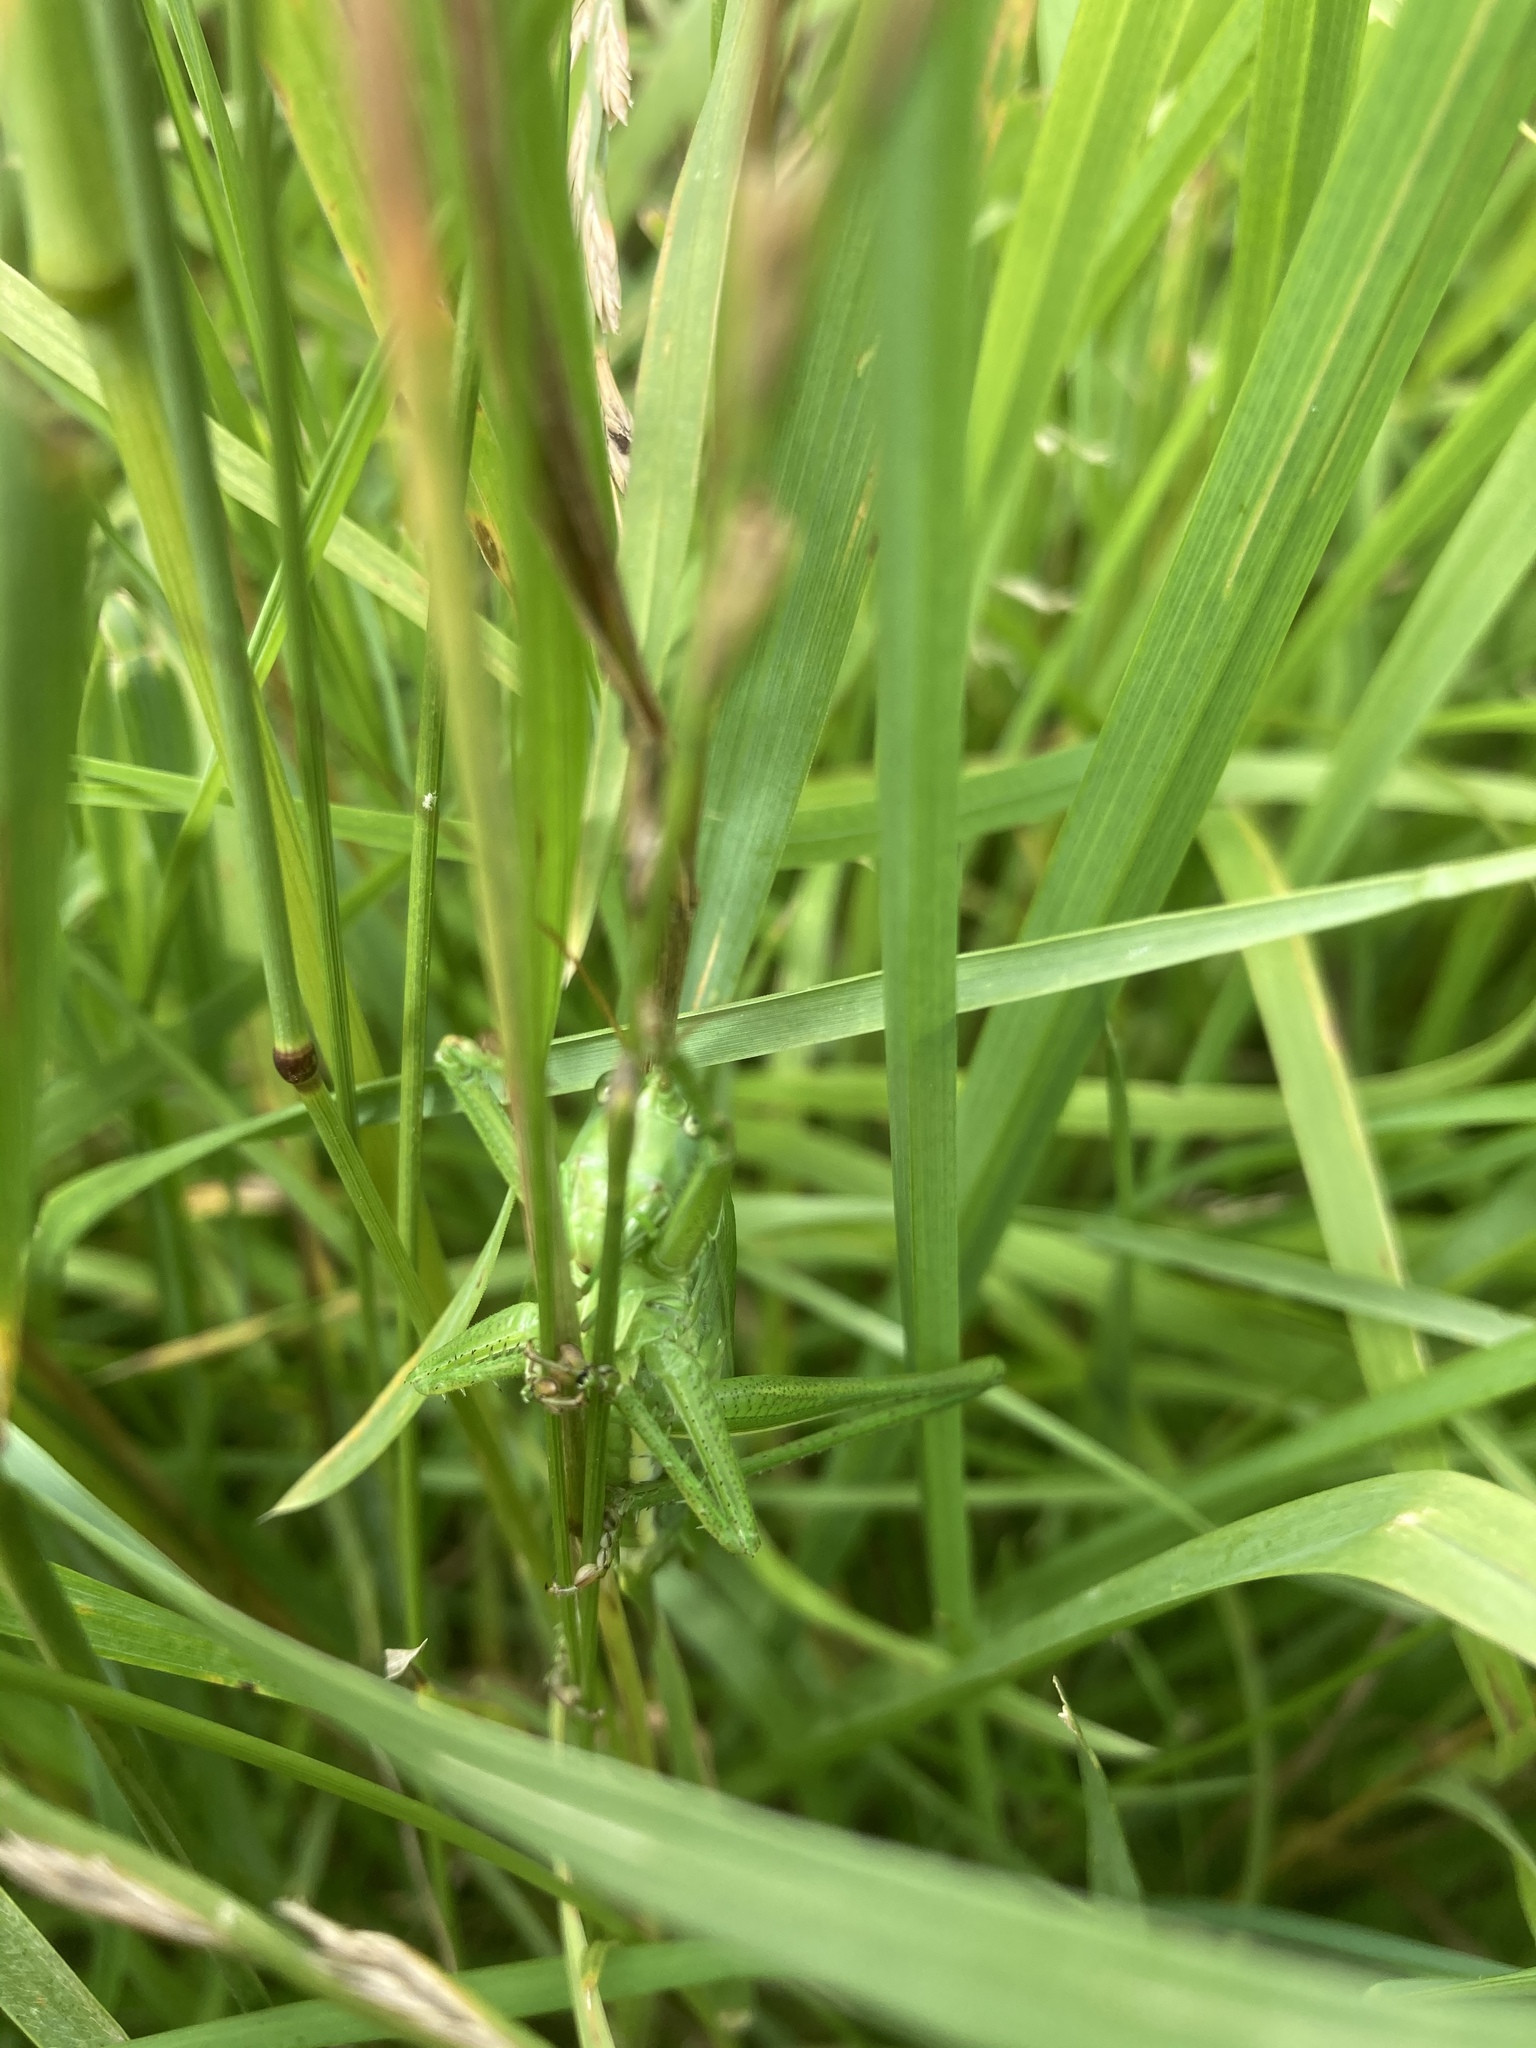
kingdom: Animalia
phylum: Arthropoda
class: Insecta
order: Orthoptera
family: Tettigoniidae
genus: Tettigonia
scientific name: Tettigonia viridissima
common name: Great green bush-cricket
